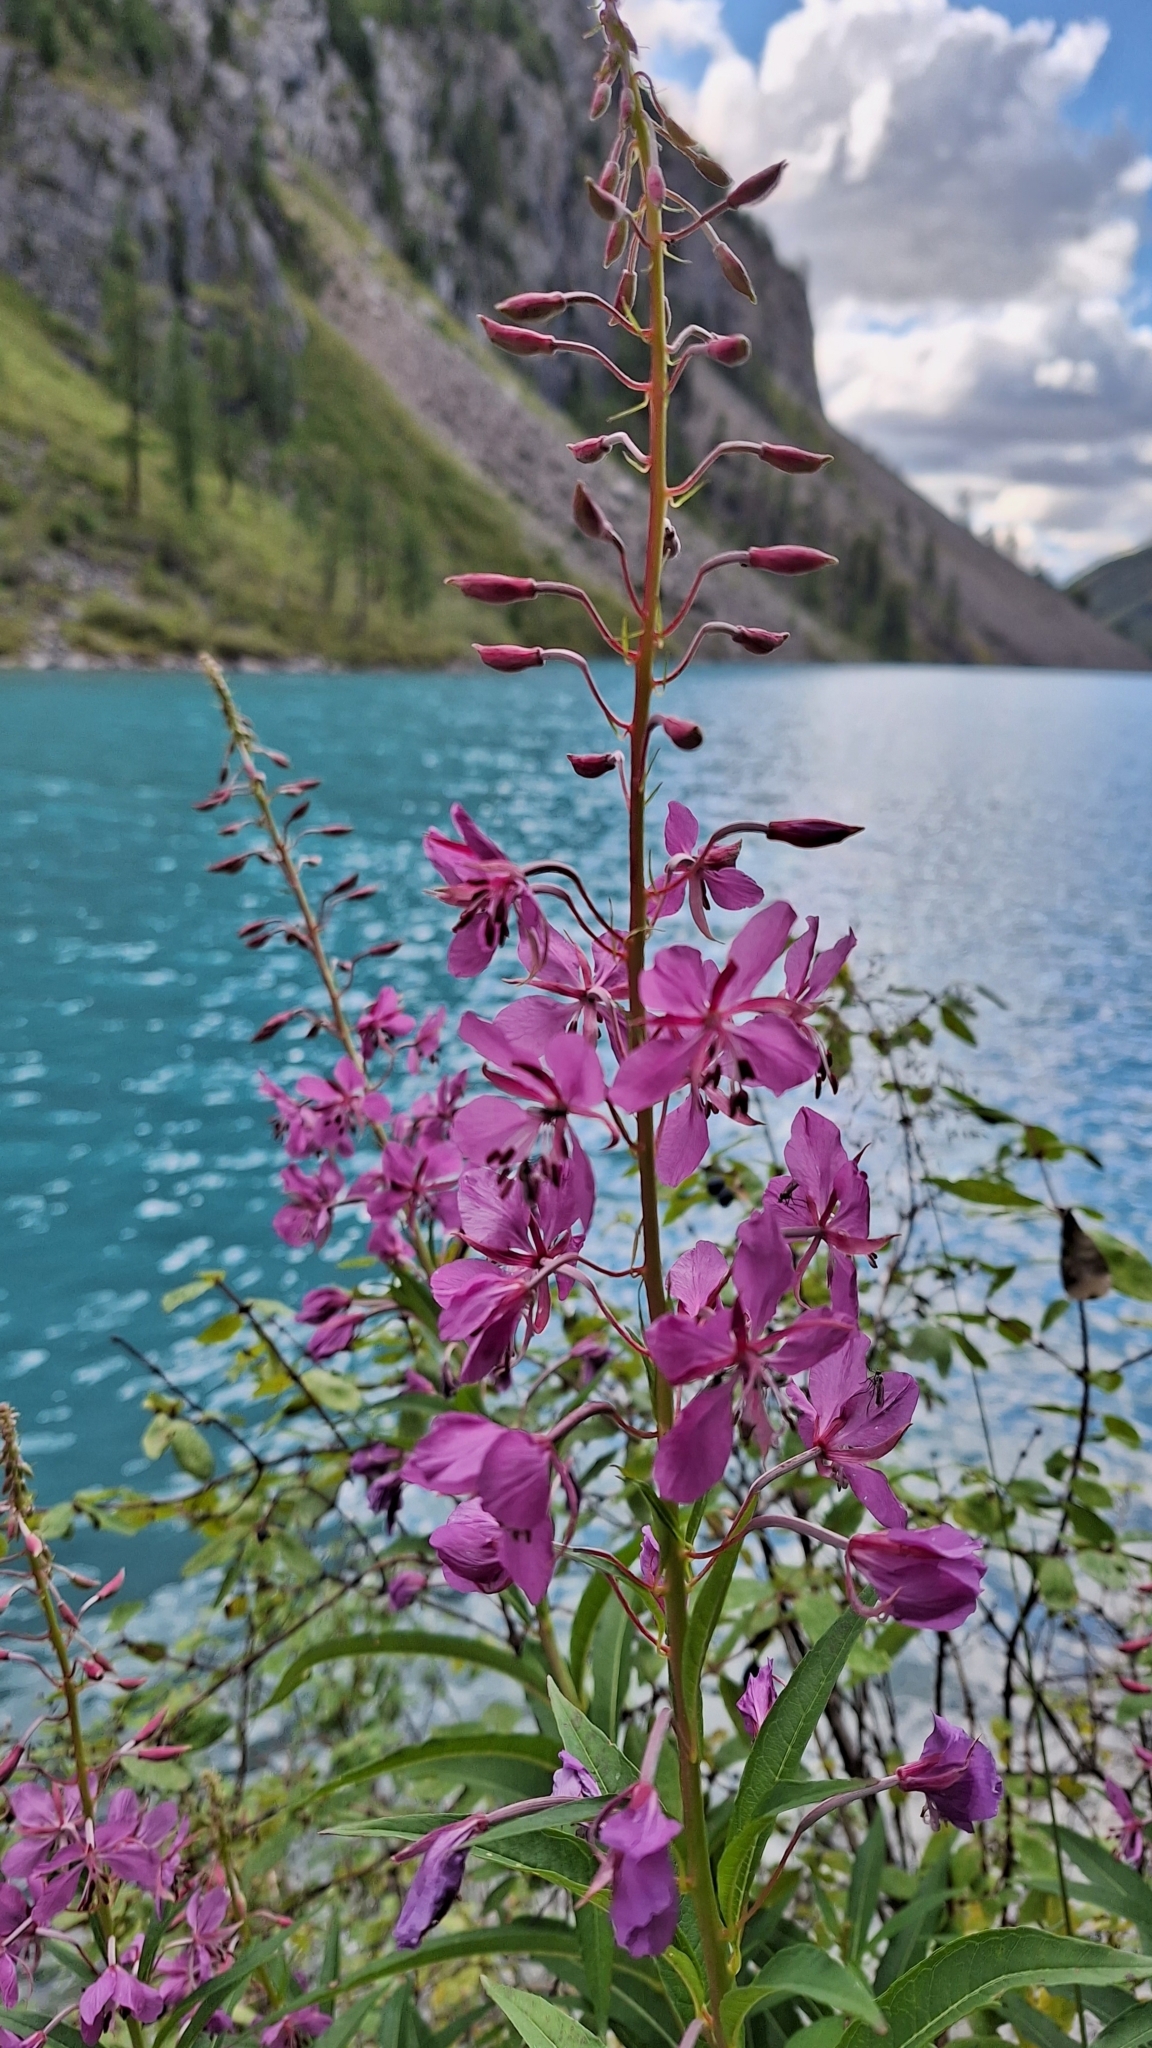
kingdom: Plantae
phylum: Tracheophyta
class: Magnoliopsida
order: Myrtales
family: Onagraceae
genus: Chamaenerion
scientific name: Chamaenerion angustifolium
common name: Fireweed
